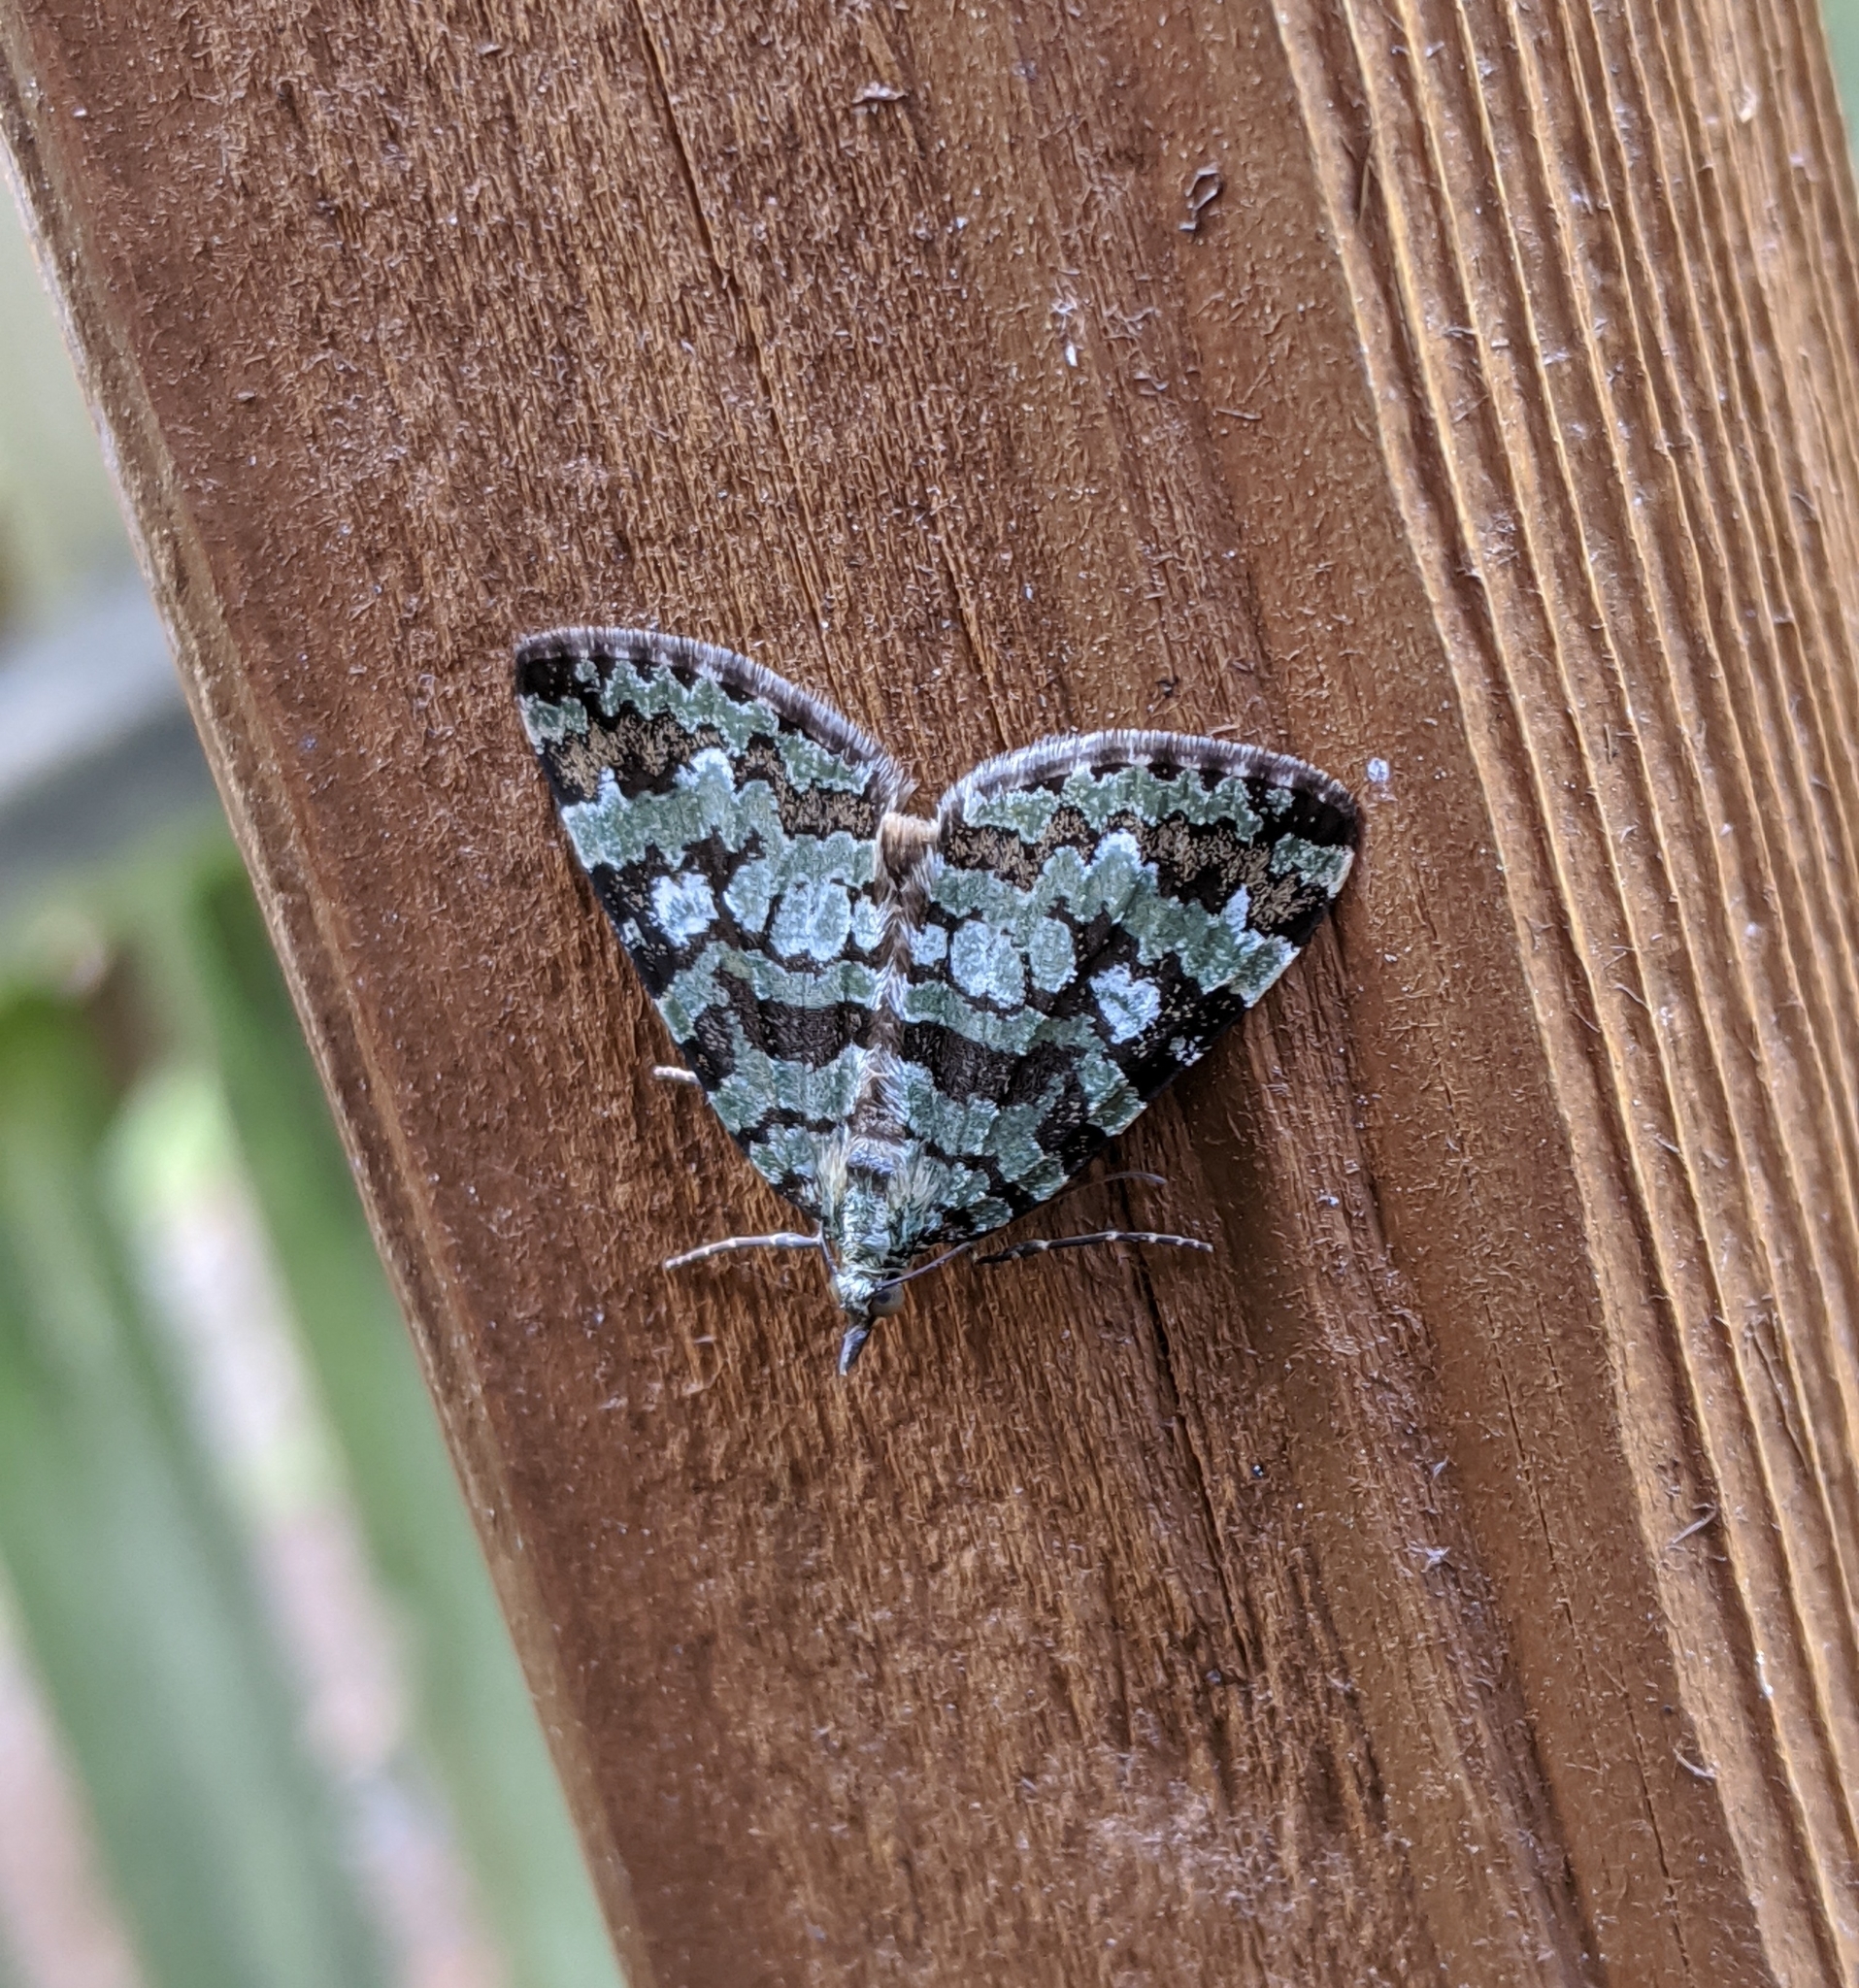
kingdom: Animalia
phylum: Arthropoda
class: Insecta
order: Lepidoptera
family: Geometridae
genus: Hydriomena
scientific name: Hydriomena speciosata
